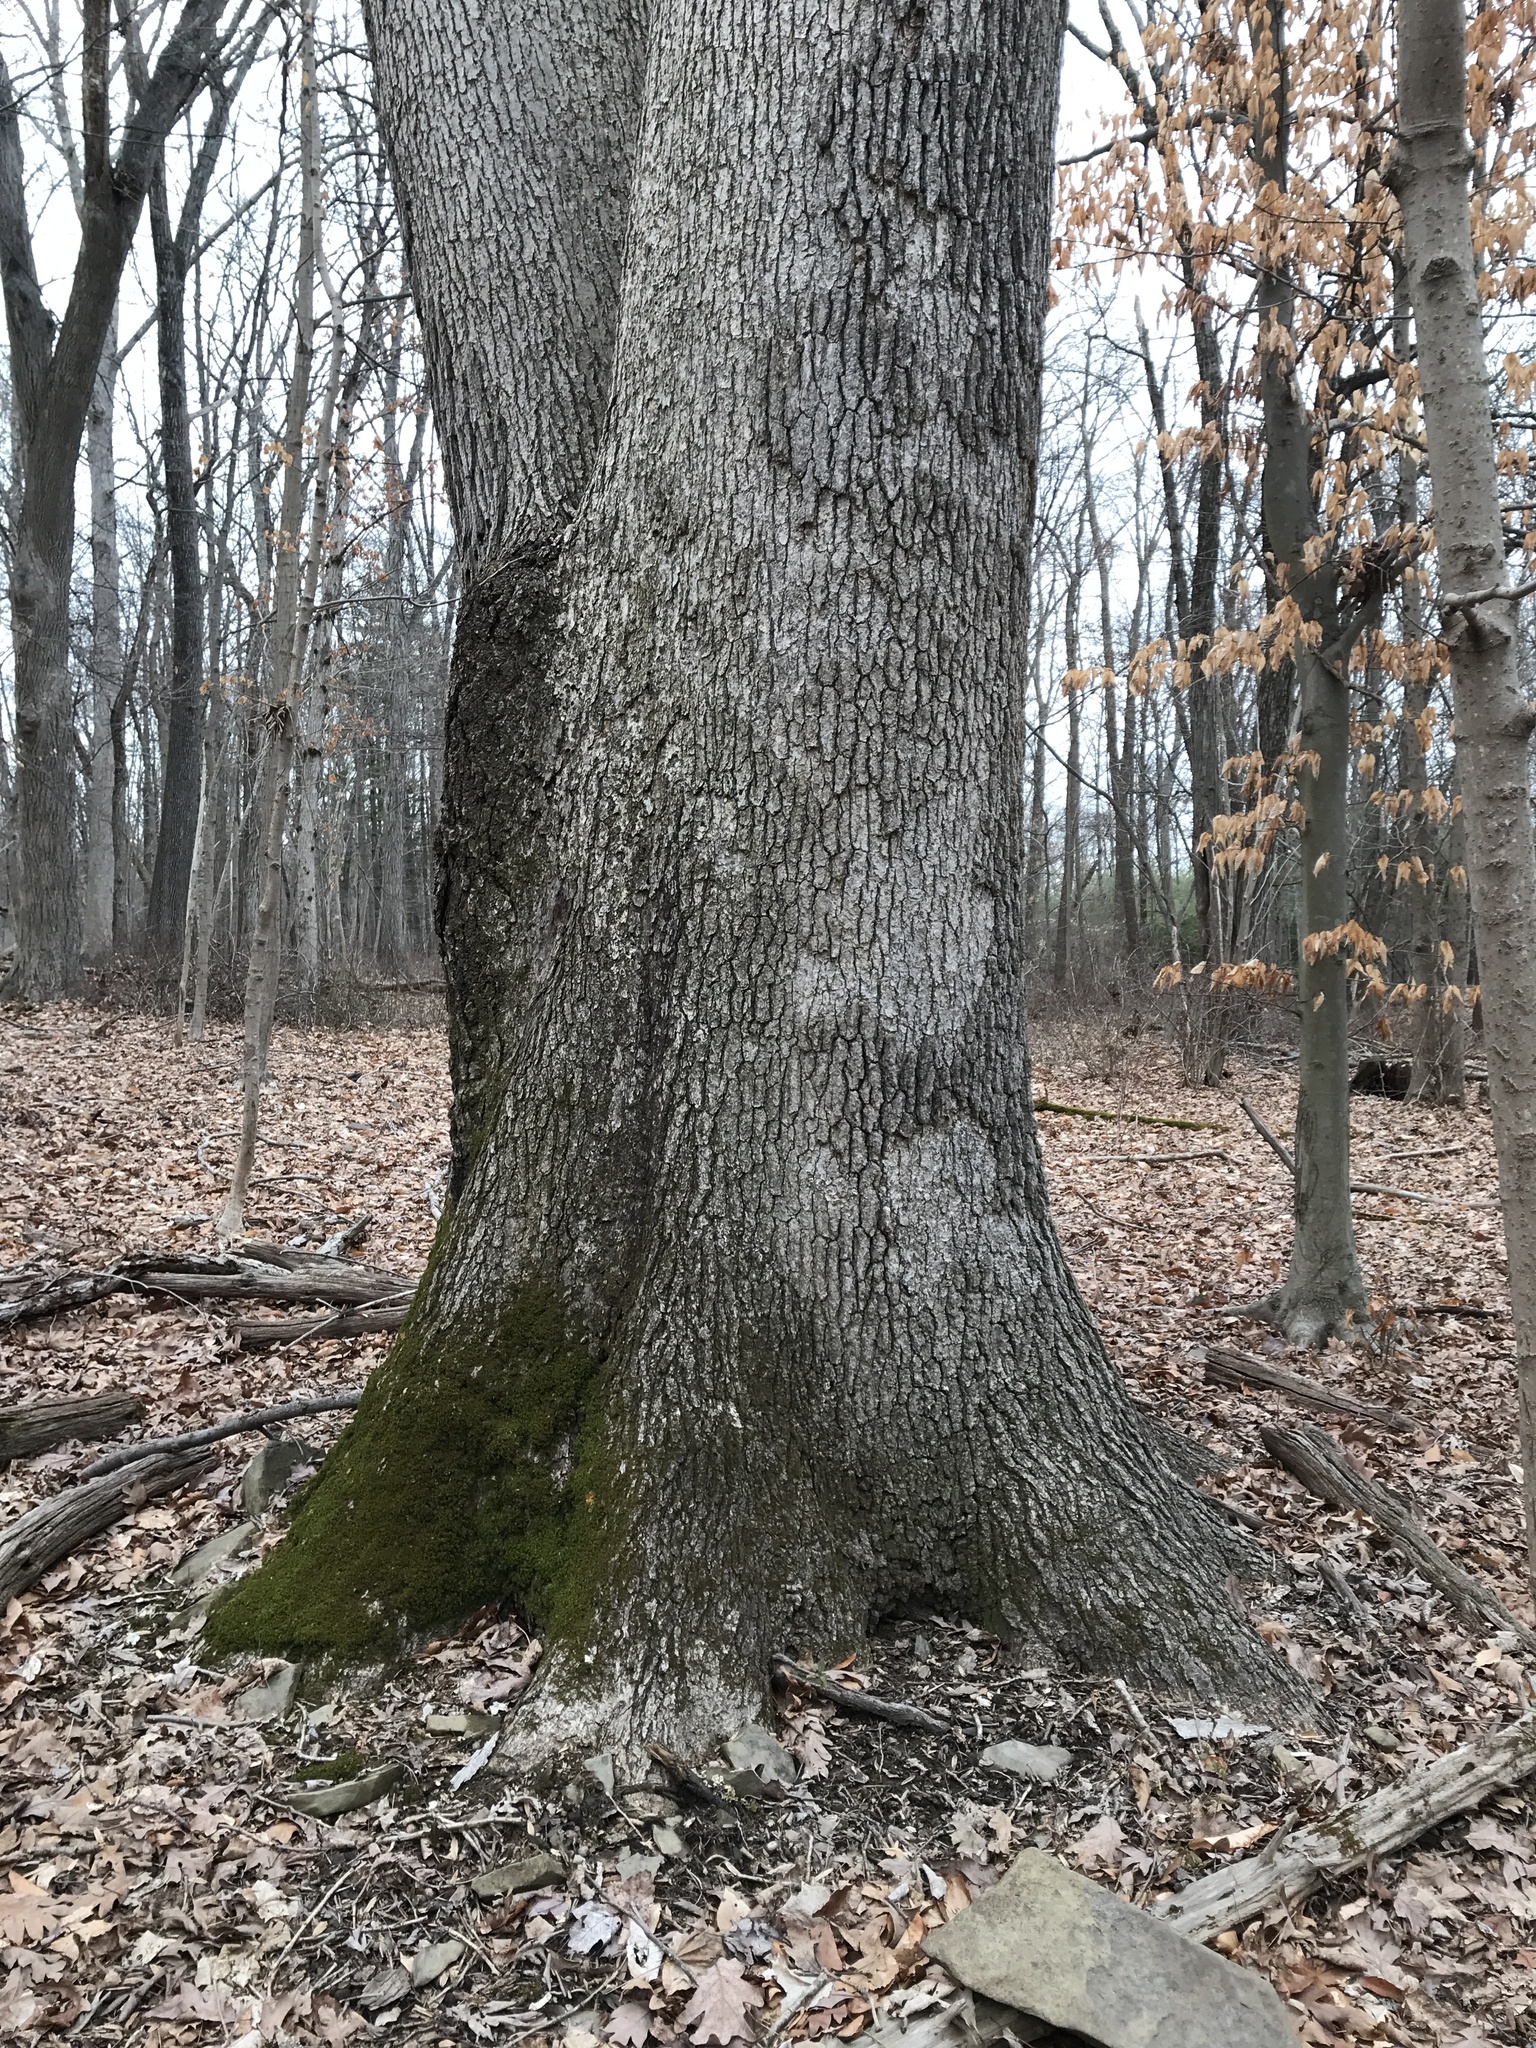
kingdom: Plantae
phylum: Tracheophyta
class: Magnoliopsida
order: Fagales
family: Fagaceae
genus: Quercus
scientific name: Quercus alba
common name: White oak
